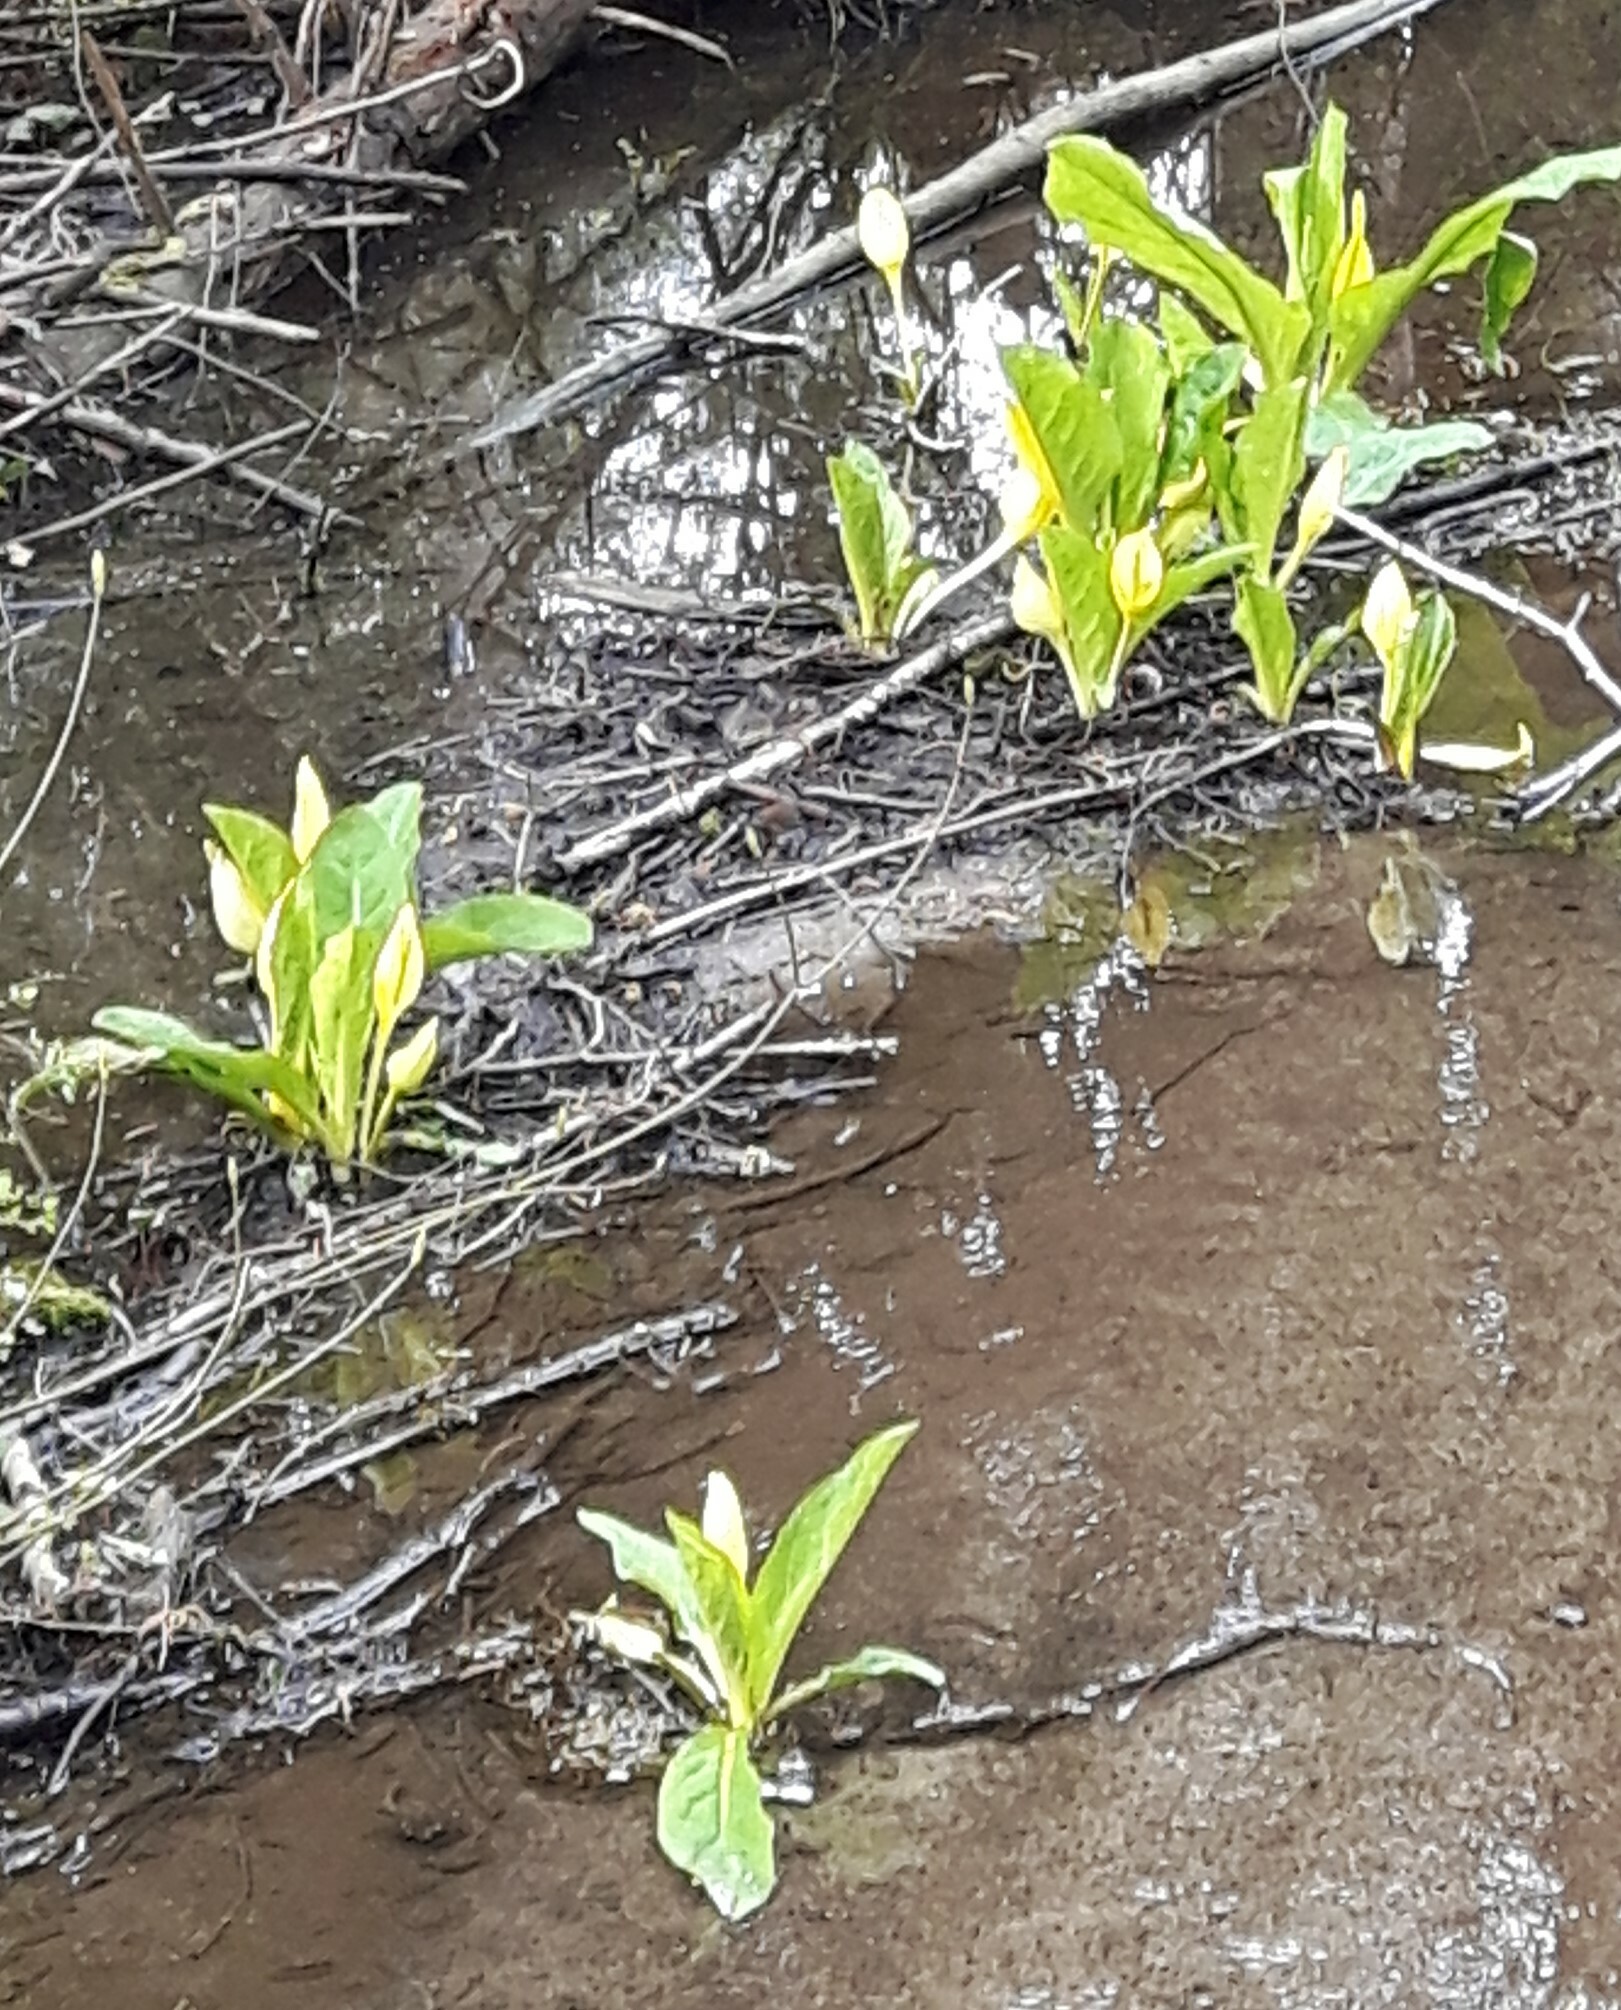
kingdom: Plantae
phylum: Tracheophyta
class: Liliopsida
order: Alismatales
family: Araceae
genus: Lysichiton
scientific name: Lysichiton americanus
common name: American skunk cabbage
